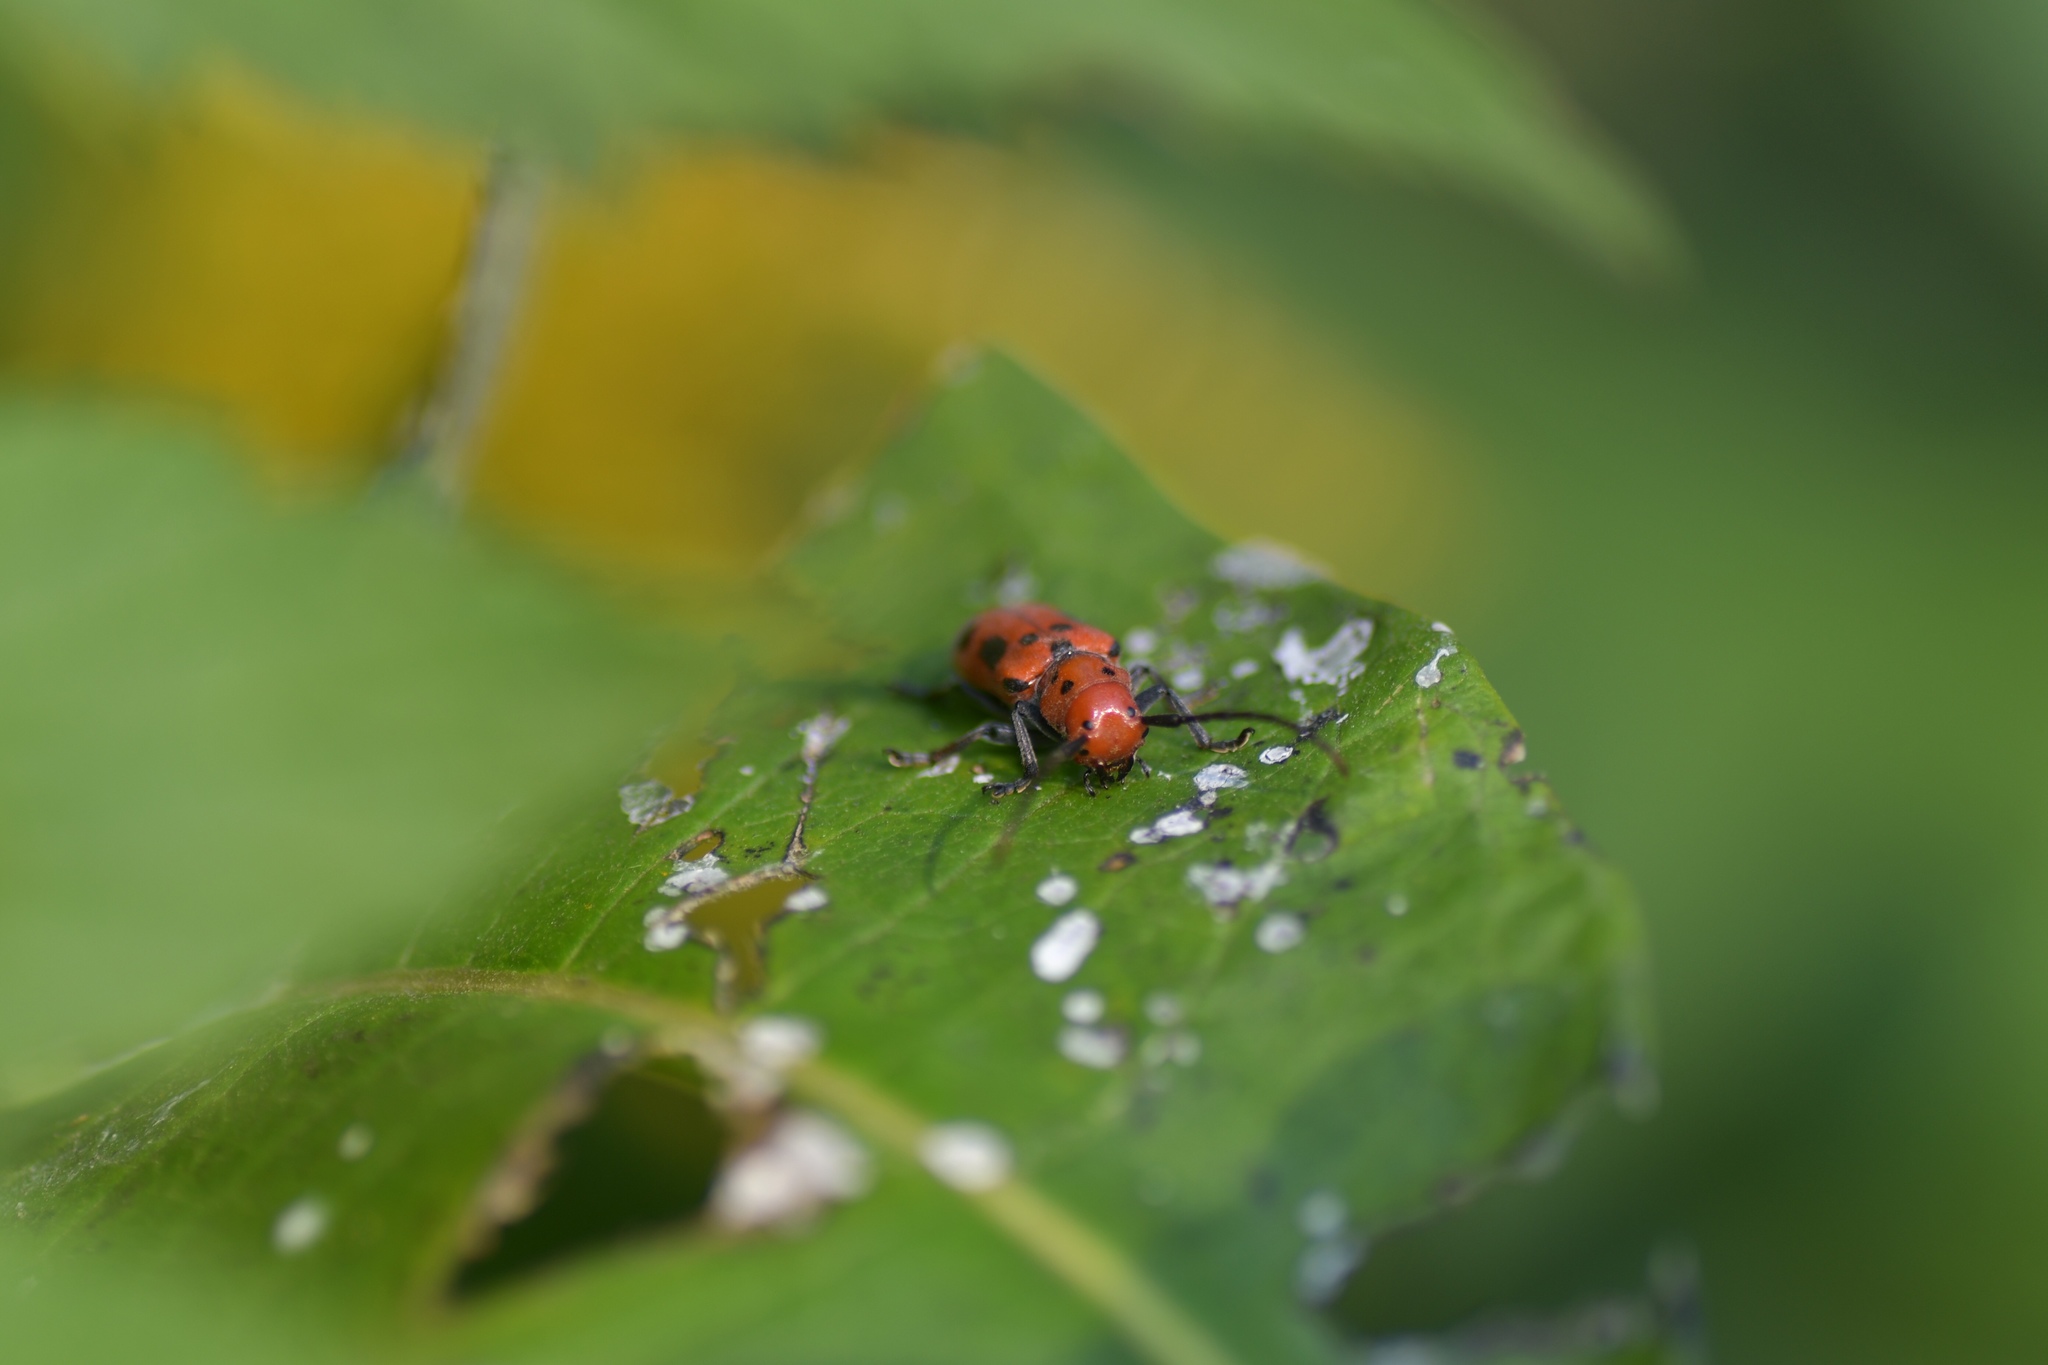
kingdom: Animalia
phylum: Arthropoda
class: Insecta
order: Coleoptera
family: Cerambycidae
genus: Tetraopes
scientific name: Tetraopes tetrophthalmus
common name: Red milkweed beetle
